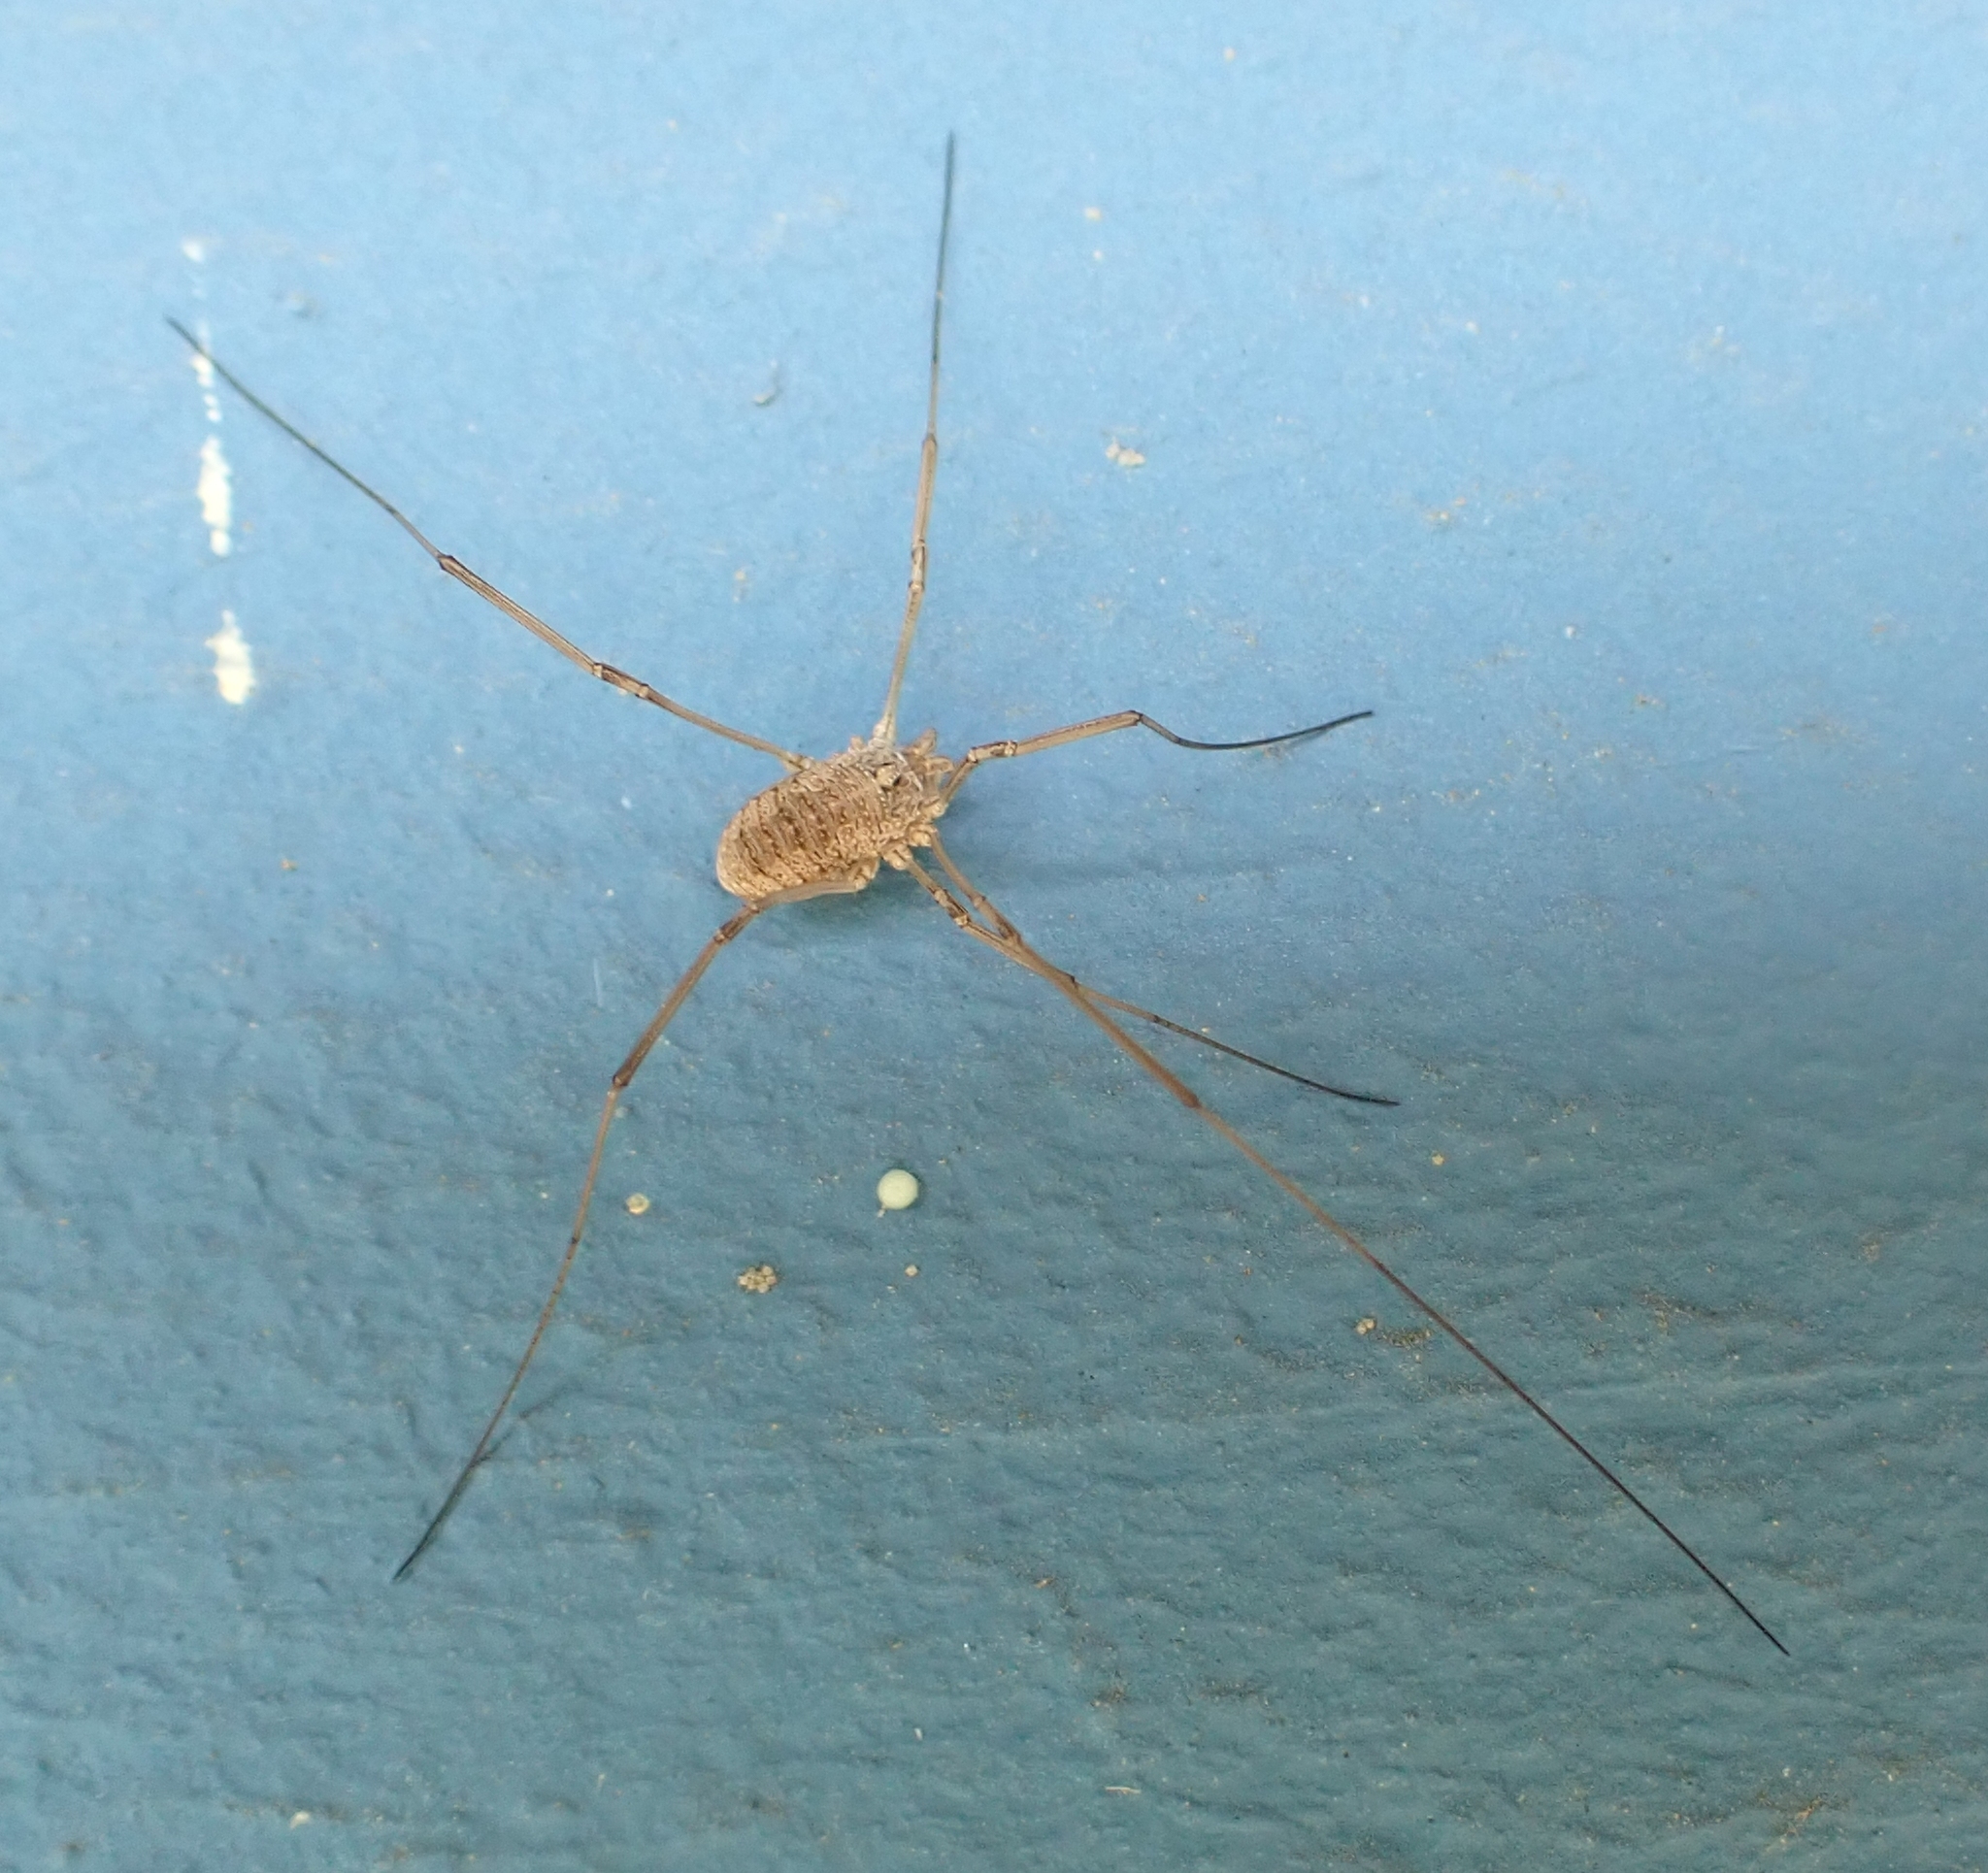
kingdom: Animalia
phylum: Arthropoda
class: Arachnida
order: Opiliones
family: Phalangiidae
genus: Phalangium
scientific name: Phalangium opilio
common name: Daddy longleg
